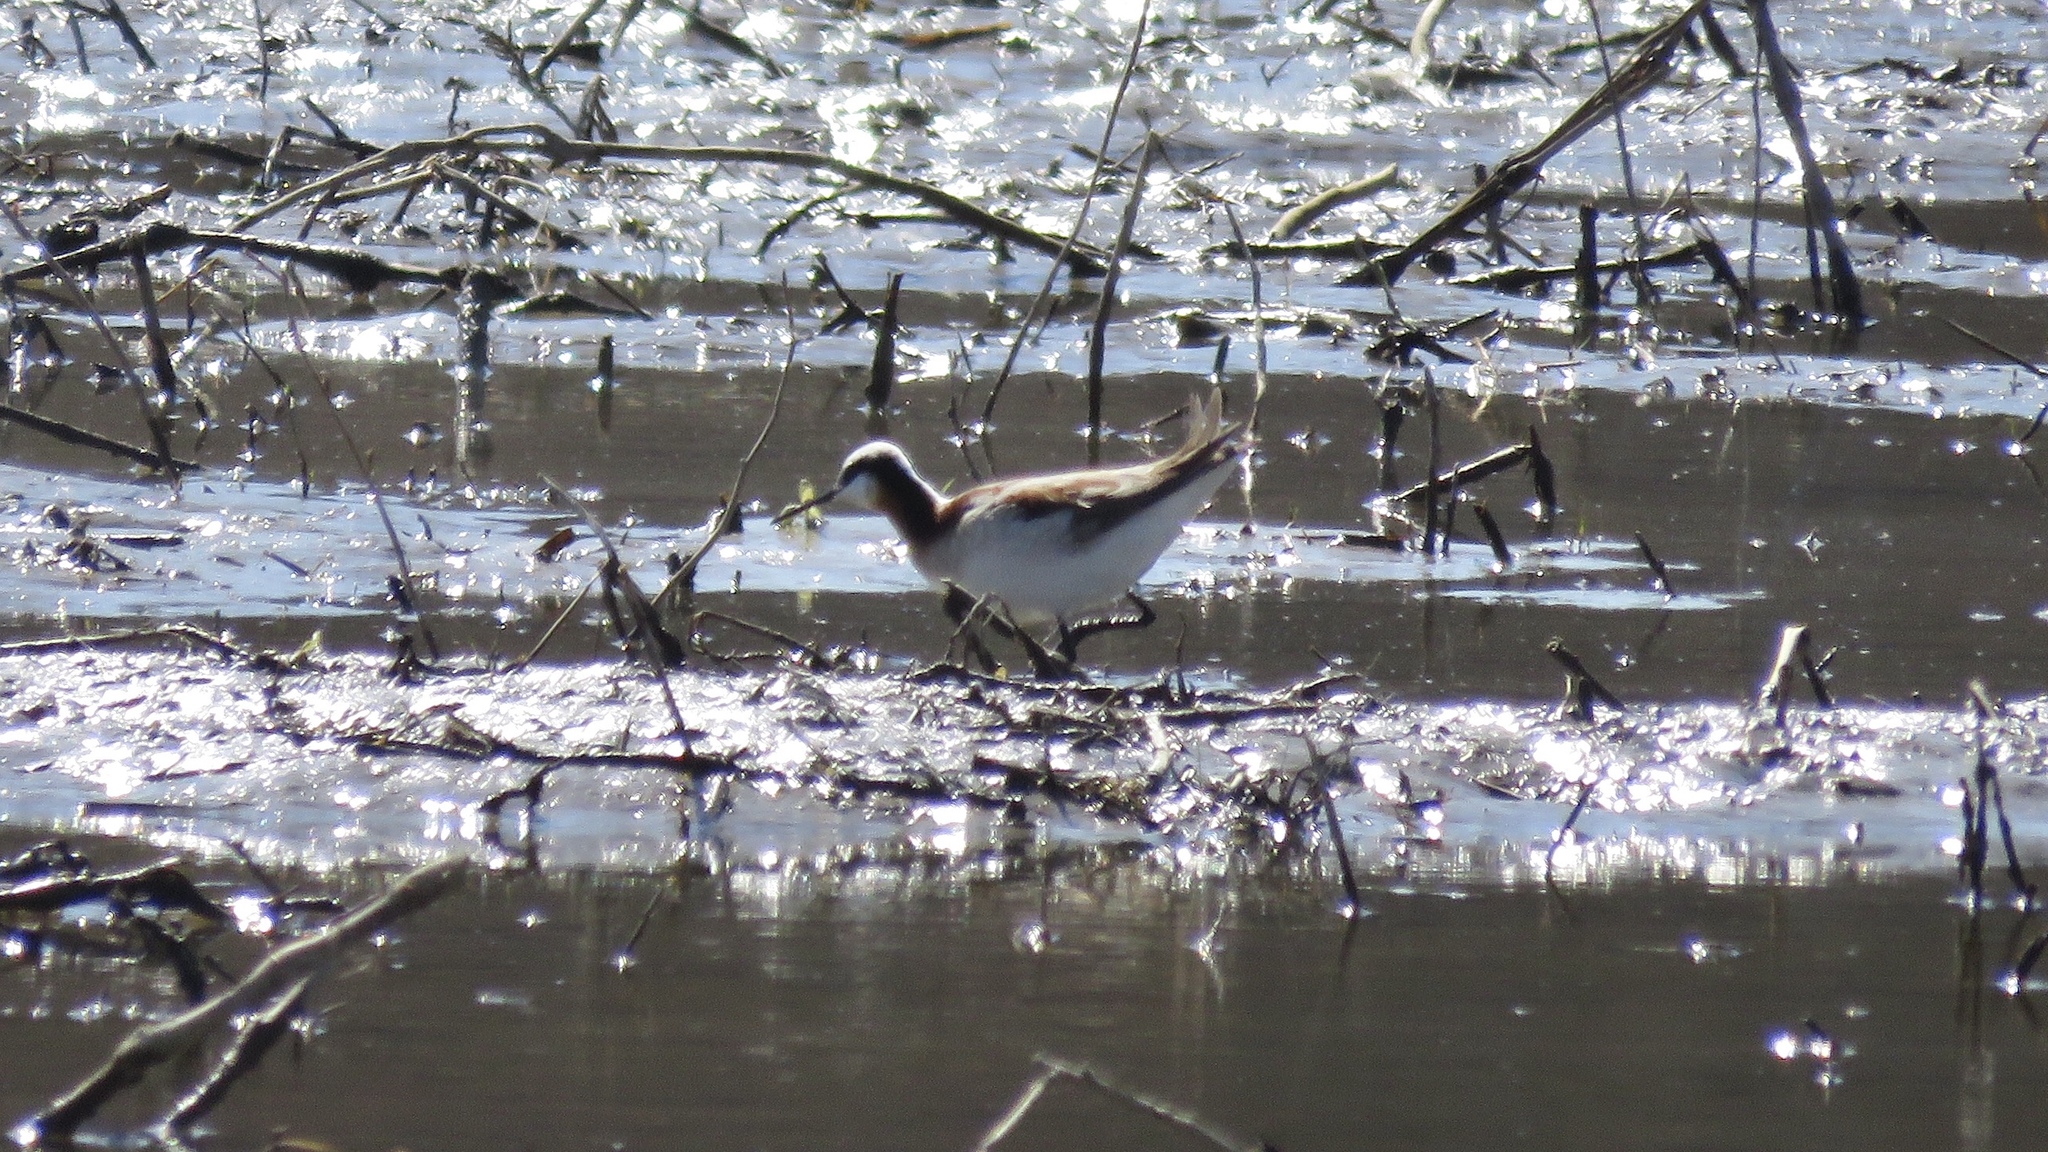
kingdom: Animalia
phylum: Chordata
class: Aves
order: Charadriiformes
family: Scolopacidae
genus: Phalaropus
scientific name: Phalaropus tricolor
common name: Wilson's phalarope
